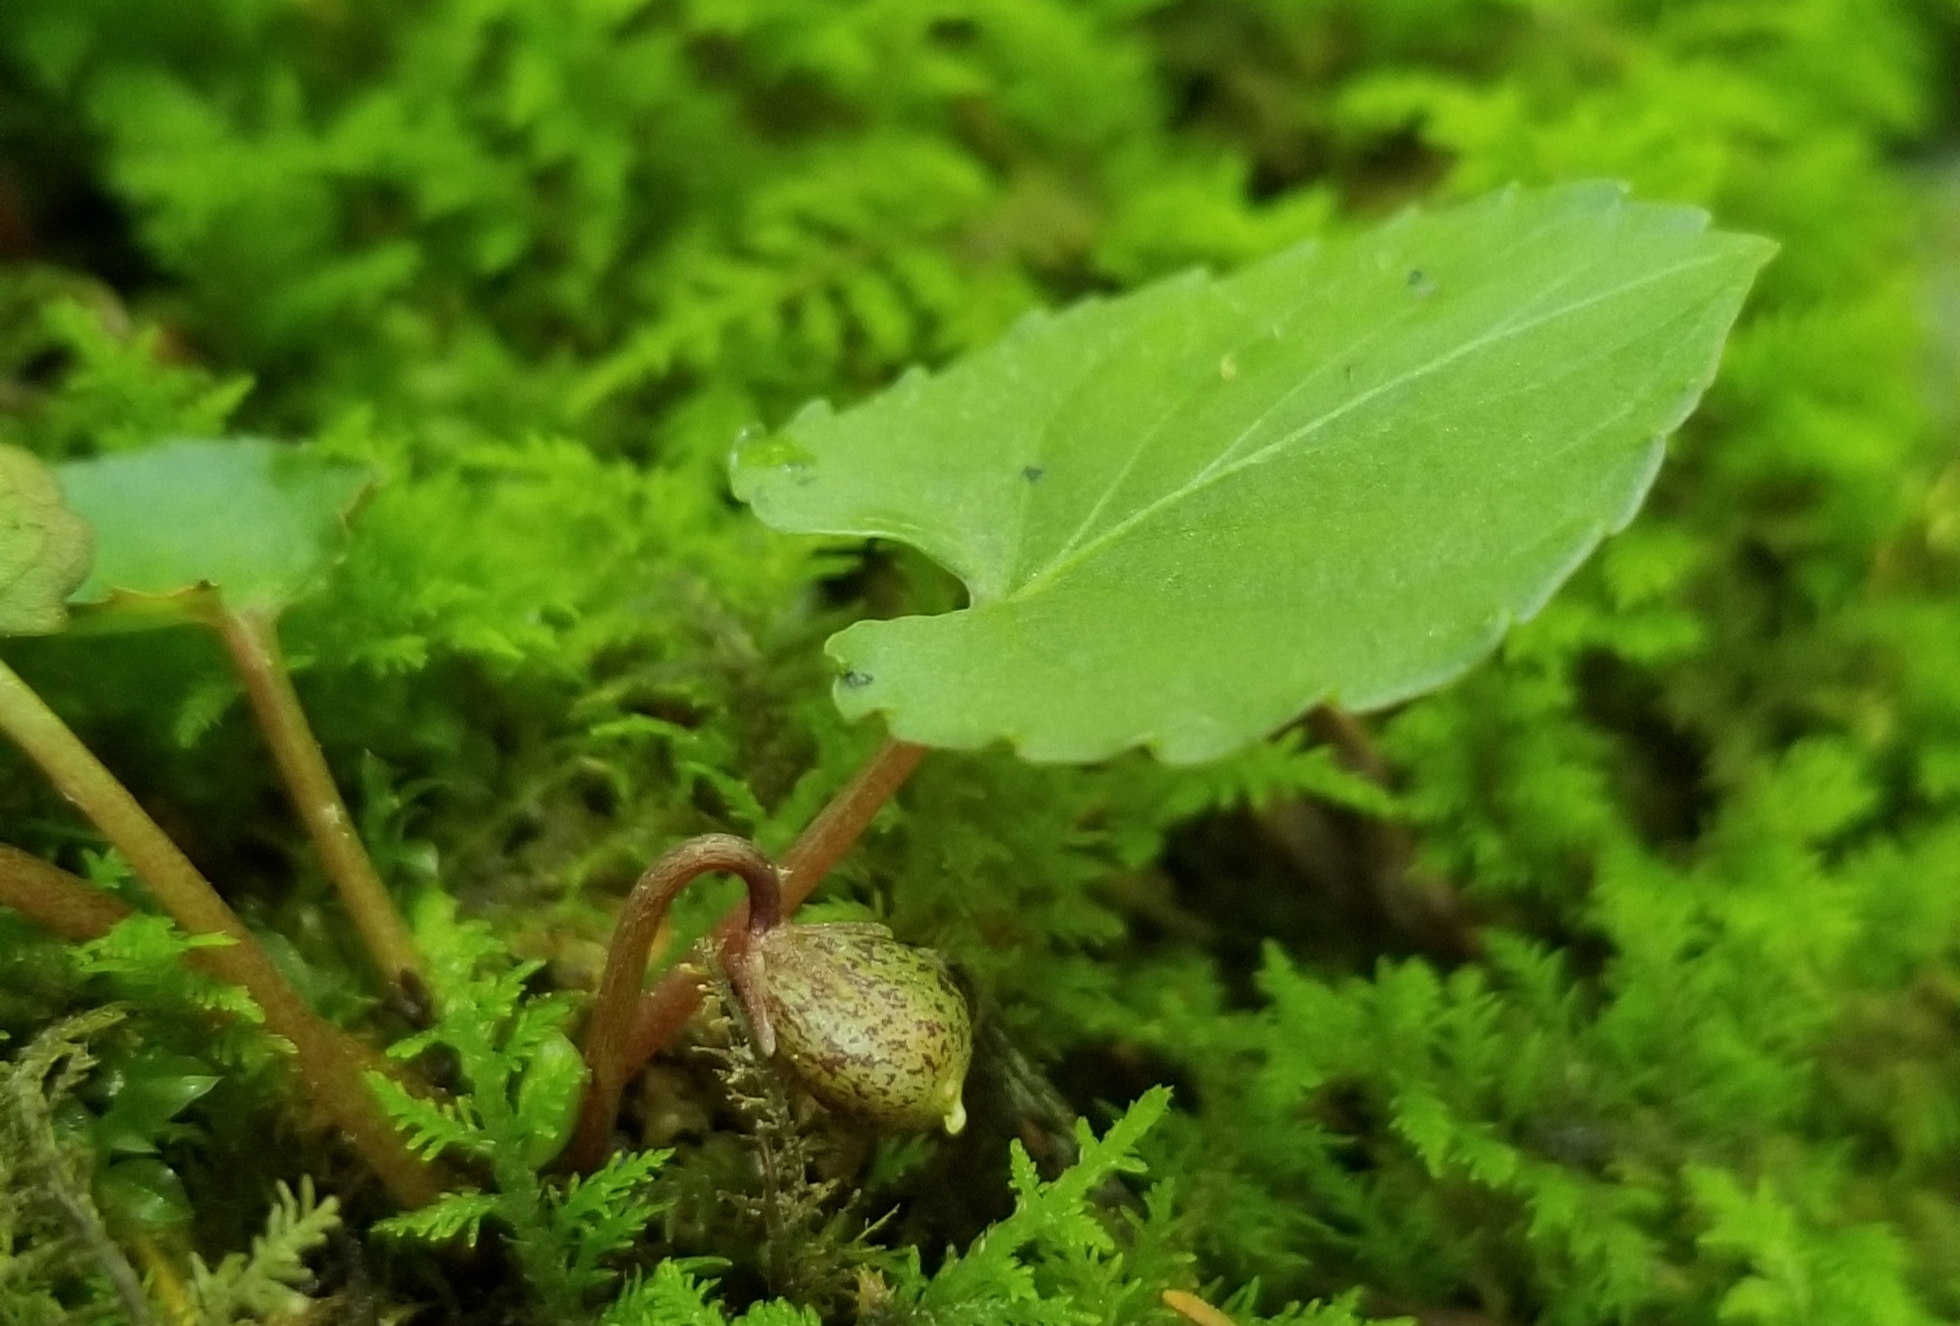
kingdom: Plantae
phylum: Tracheophyta
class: Magnoliopsida
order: Malpighiales
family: Violaceae
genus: Viola
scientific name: Viola blanda
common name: Sweet white violet
